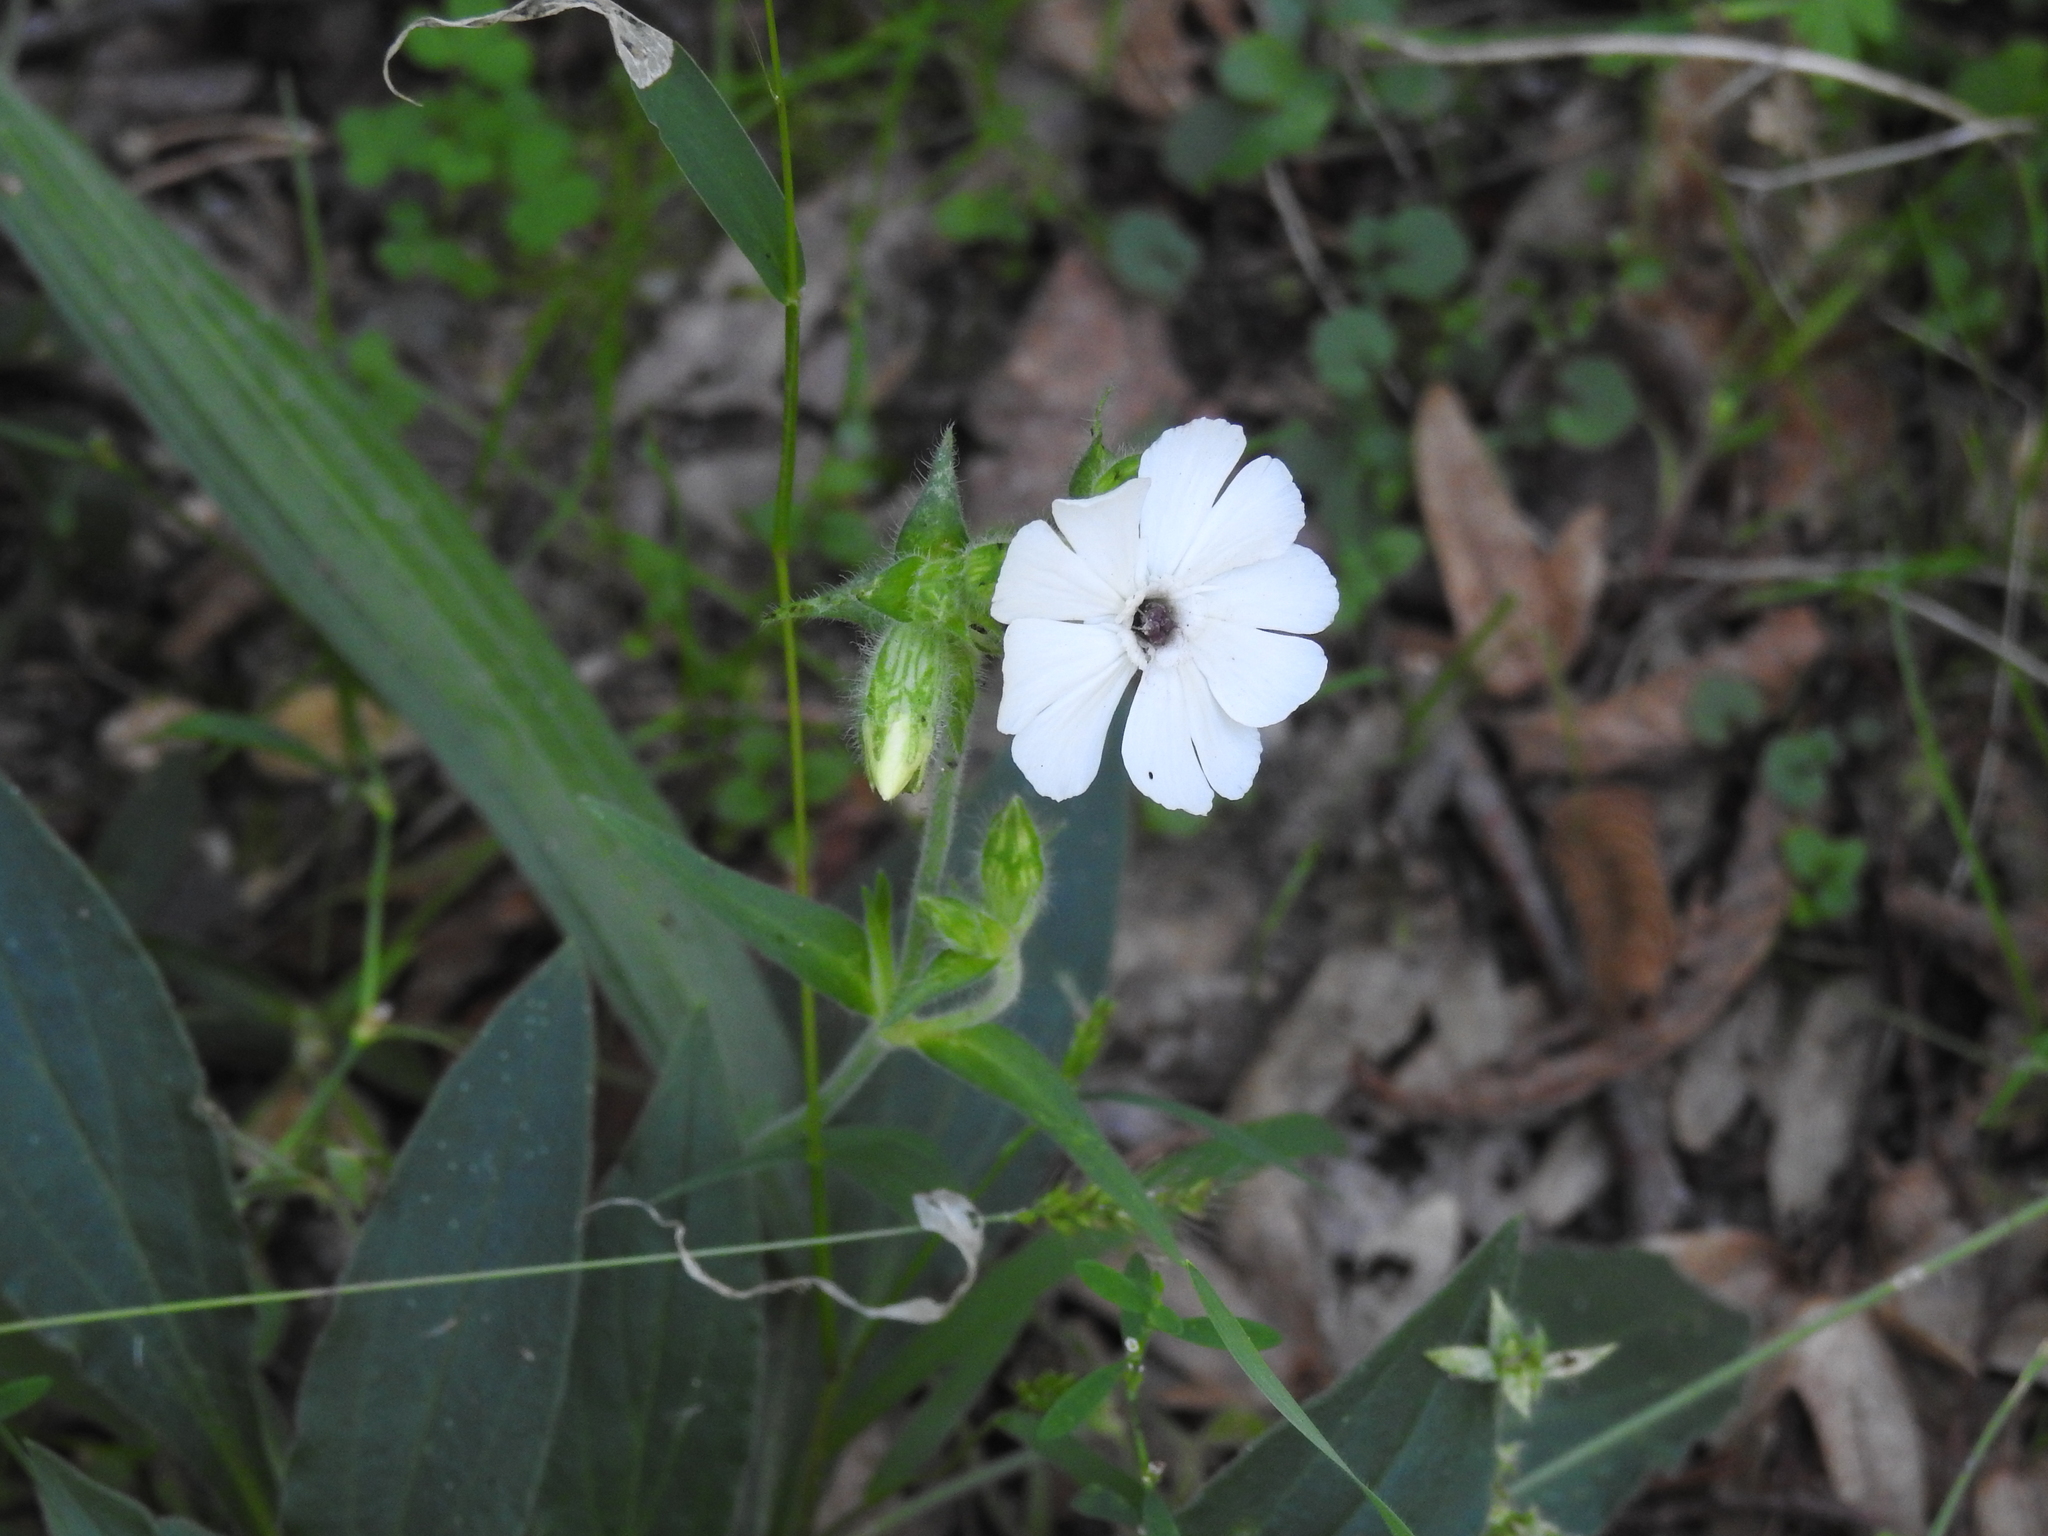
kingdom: Fungi
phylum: Basidiomycota
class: Microbotryomycetes
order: Microbotryales
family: Microbotryaceae
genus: Microbotryum
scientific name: Microbotryum lychnidis-dioicae
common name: Campion anther smut
